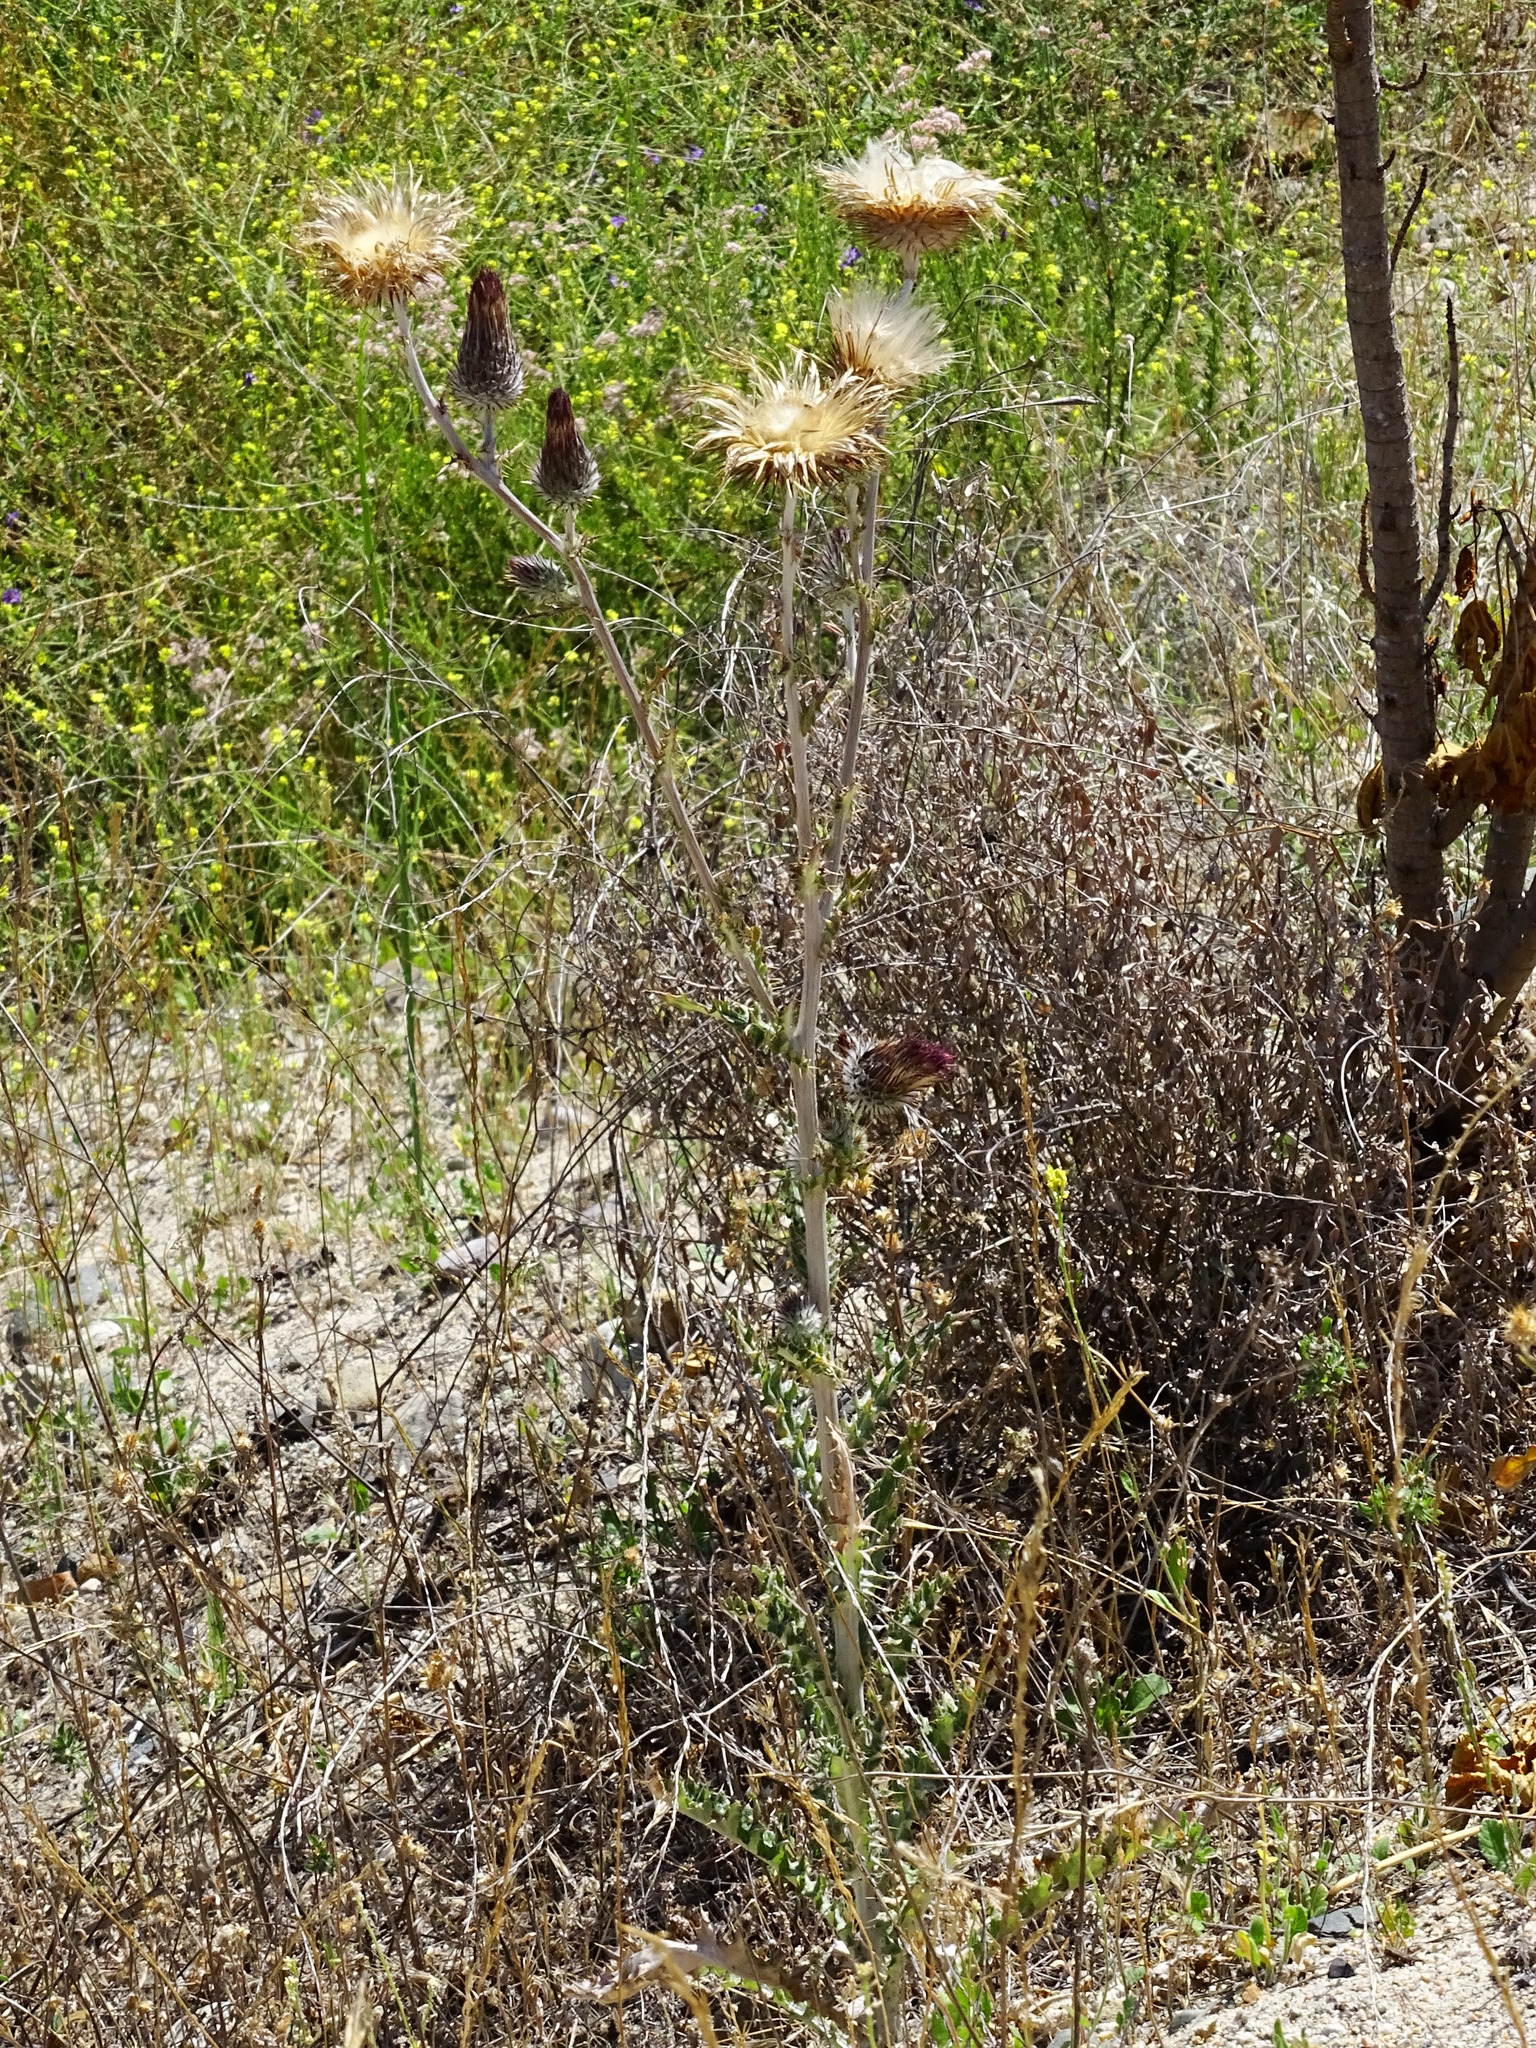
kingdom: Plantae
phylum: Tracheophyta
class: Magnoliopsida
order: Asterales
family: Asteraceae
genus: Cirsium
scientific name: Cirsium occidentale
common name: Western thistle
